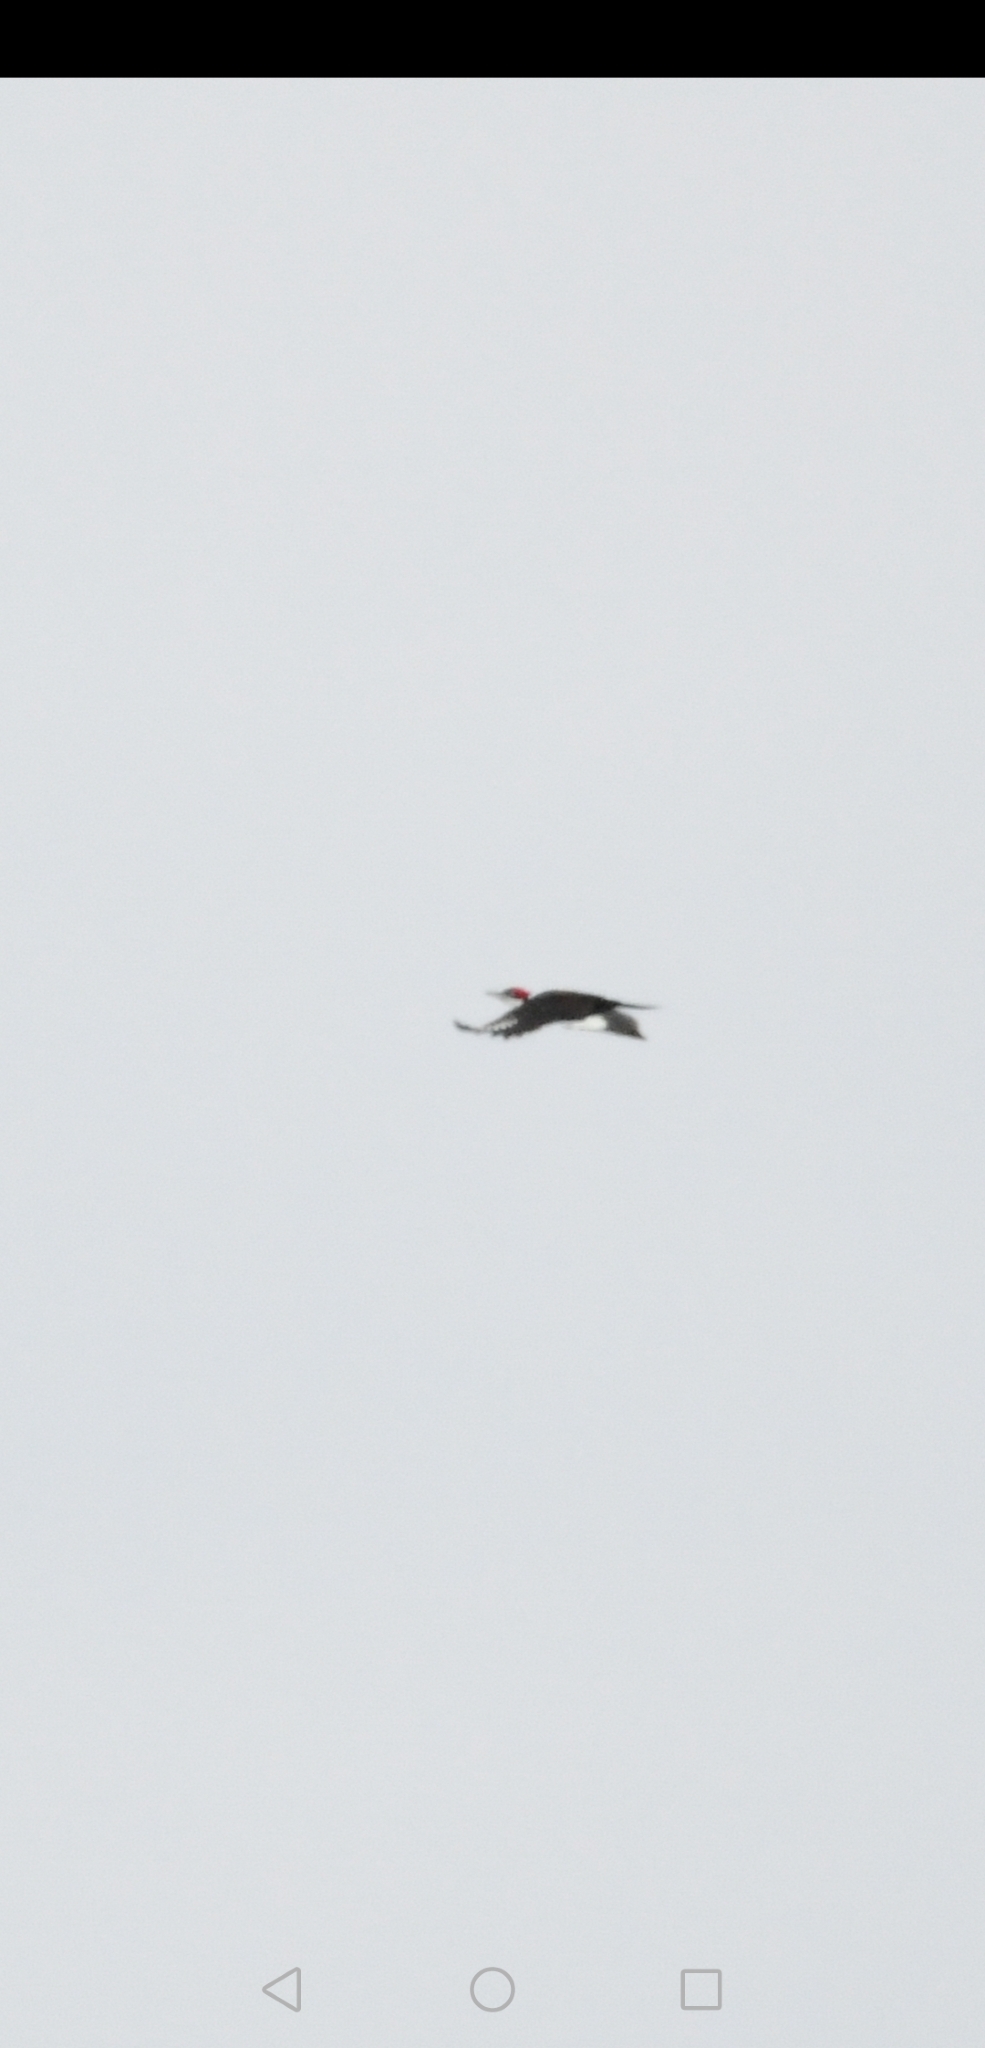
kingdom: Animalia
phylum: Chordata
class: Aves
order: Piciformes
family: Picidae
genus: Dryocopus
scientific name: Dryocopus pileatus
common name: Pileated woodpecker
